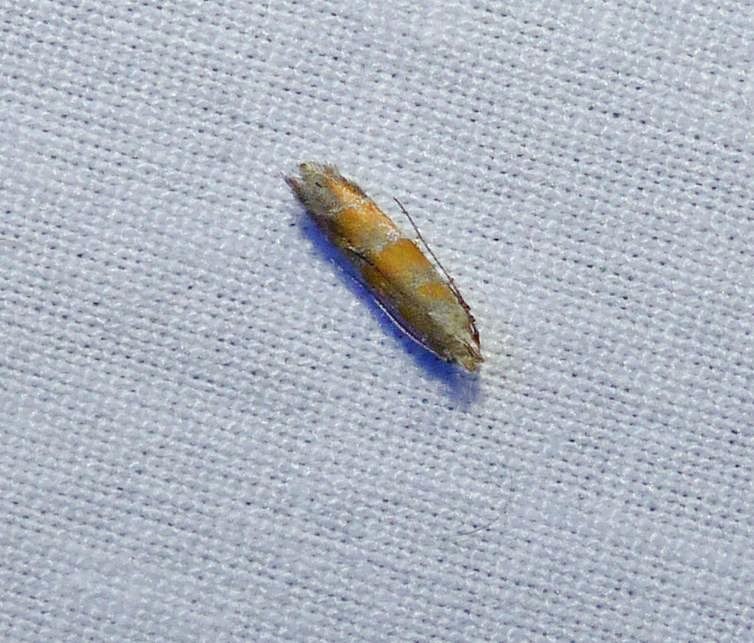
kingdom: Animalia
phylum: Arthropoda
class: Insecta
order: Lepidoptera
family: Gelechiidae
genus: Battaristis
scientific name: Battaristis vittella
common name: Orange stripe-backed moth
